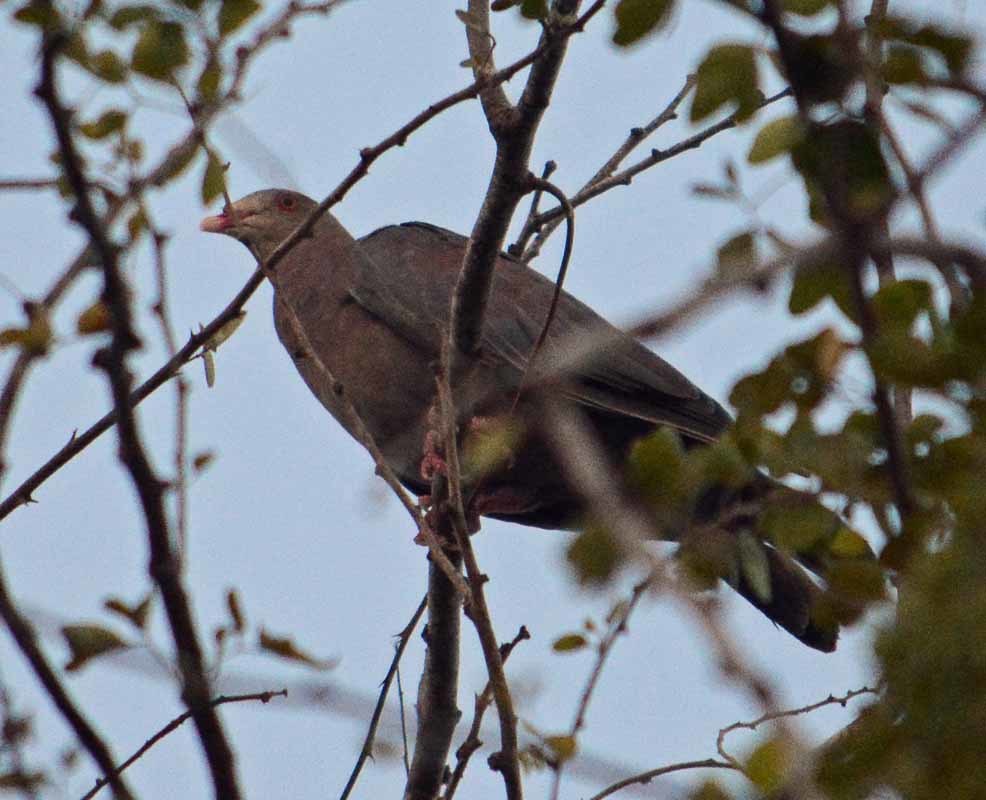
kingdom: Animalia
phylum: Chordata
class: Aves
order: Columbiformes
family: Columbidae
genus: Patagioenas
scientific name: Patagioenas flavirostris
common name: Red-billed pigeon
